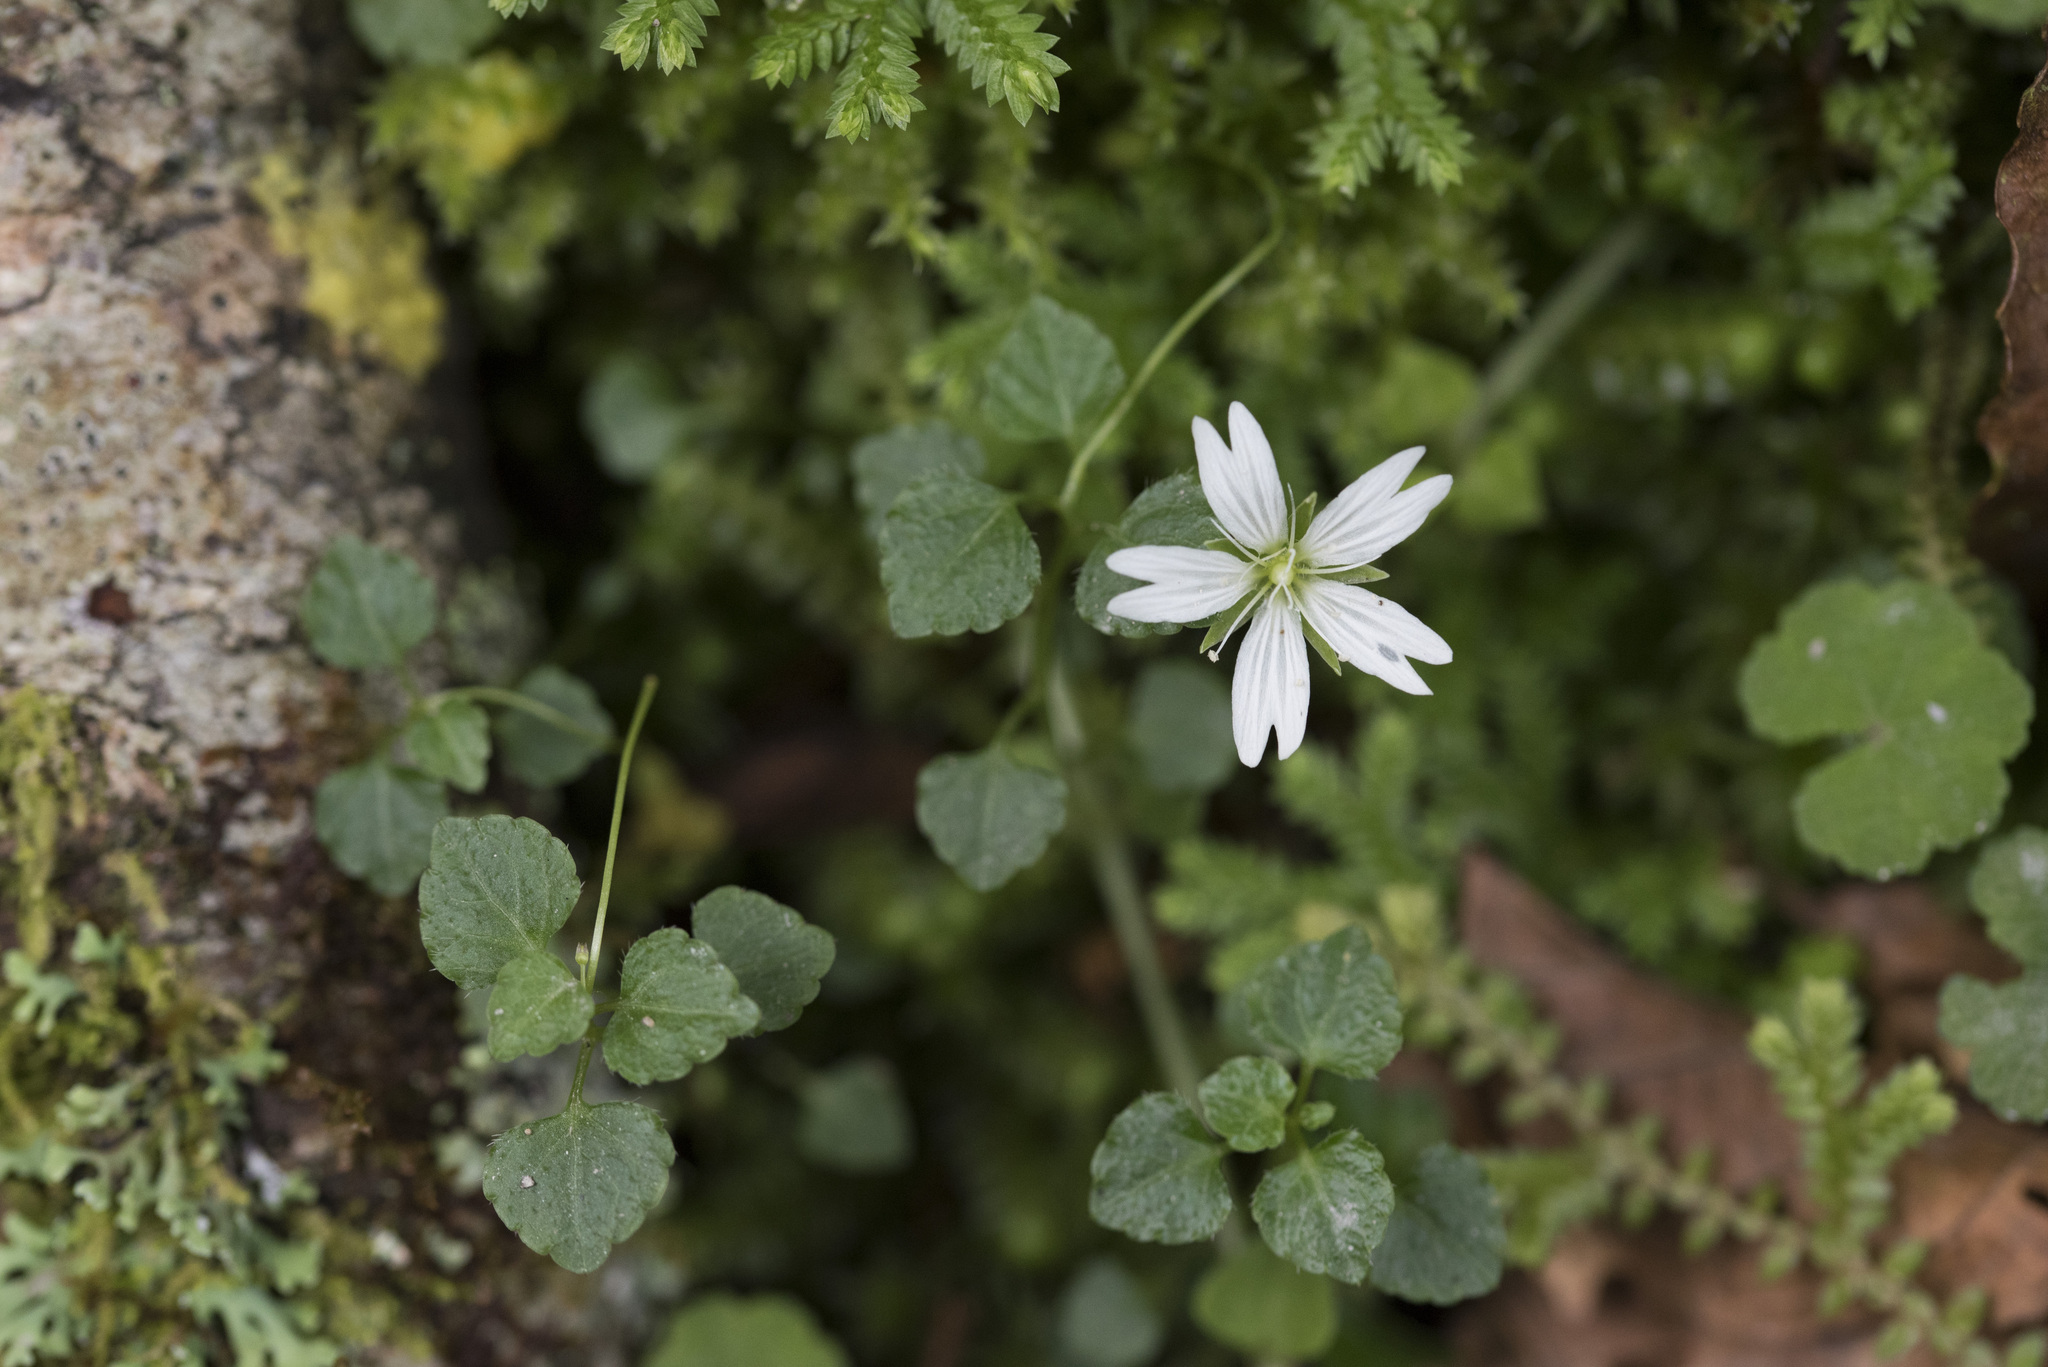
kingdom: Plantae
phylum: Tracheophyta
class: Magnoliopsida
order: Caryophyllales
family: Caryophyllaceae
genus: Nubelaria
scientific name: Nubelaria arisanensis
